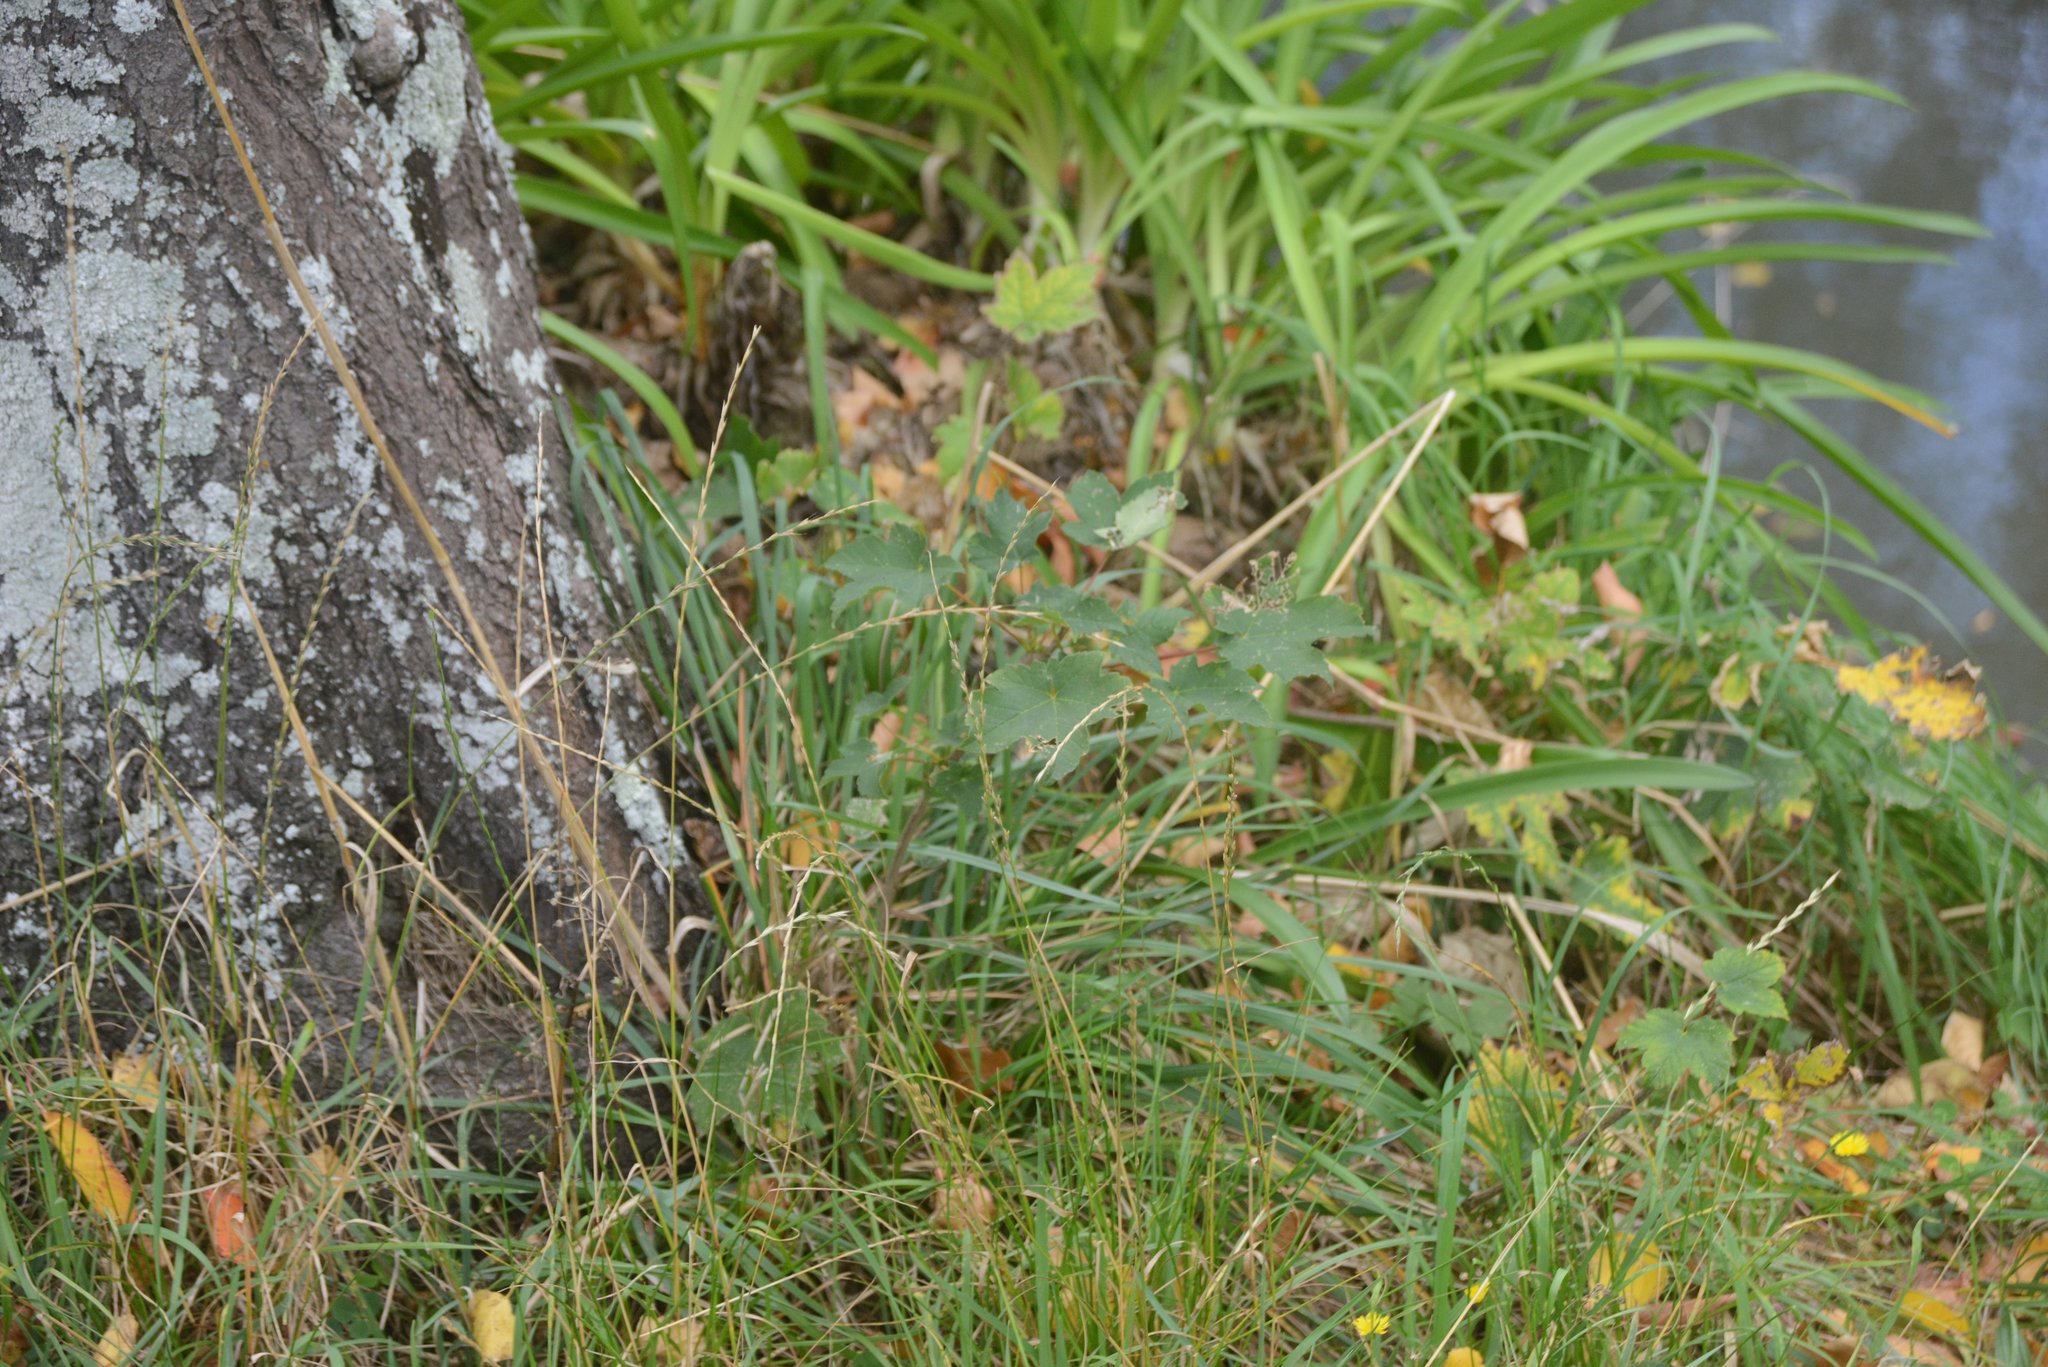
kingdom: Plantae
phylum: Tracheophyta
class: Magnoliopsida
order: Sapindales
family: Sapindaceae
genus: Acer
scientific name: Acer pseudoplatanus
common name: Sycamore
